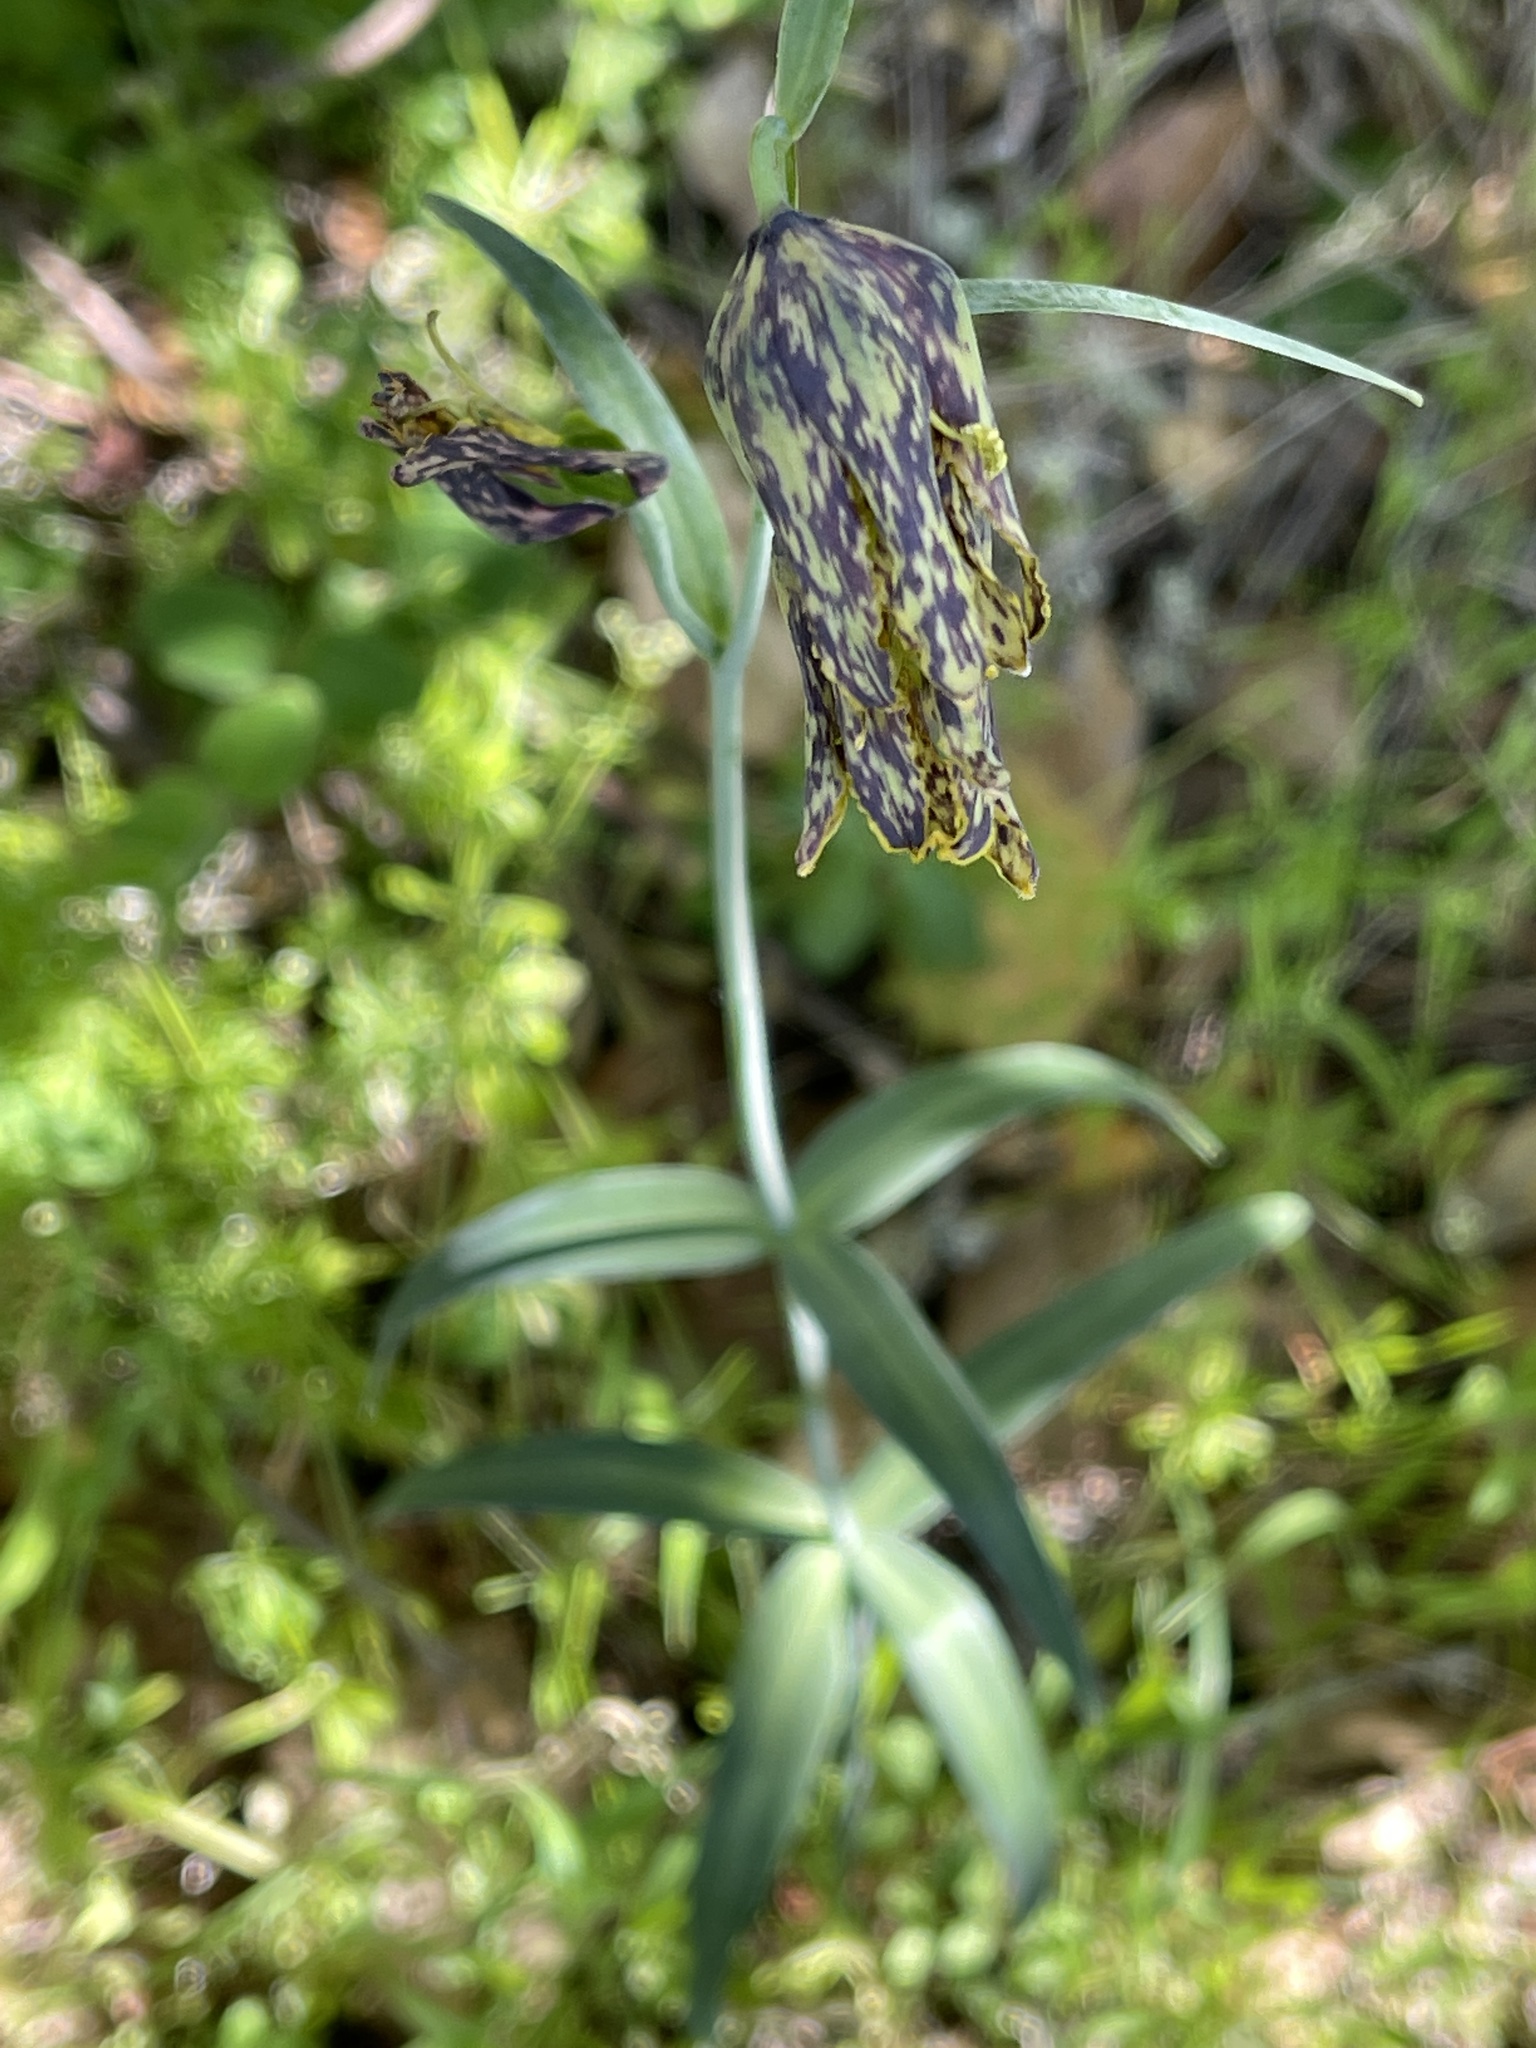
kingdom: Plantae
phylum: Tracheophyta
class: Liliopsida
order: Liliales
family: Liliaceae
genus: Fritillaria
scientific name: Fritillaria affinis
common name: Ojai fritillary
